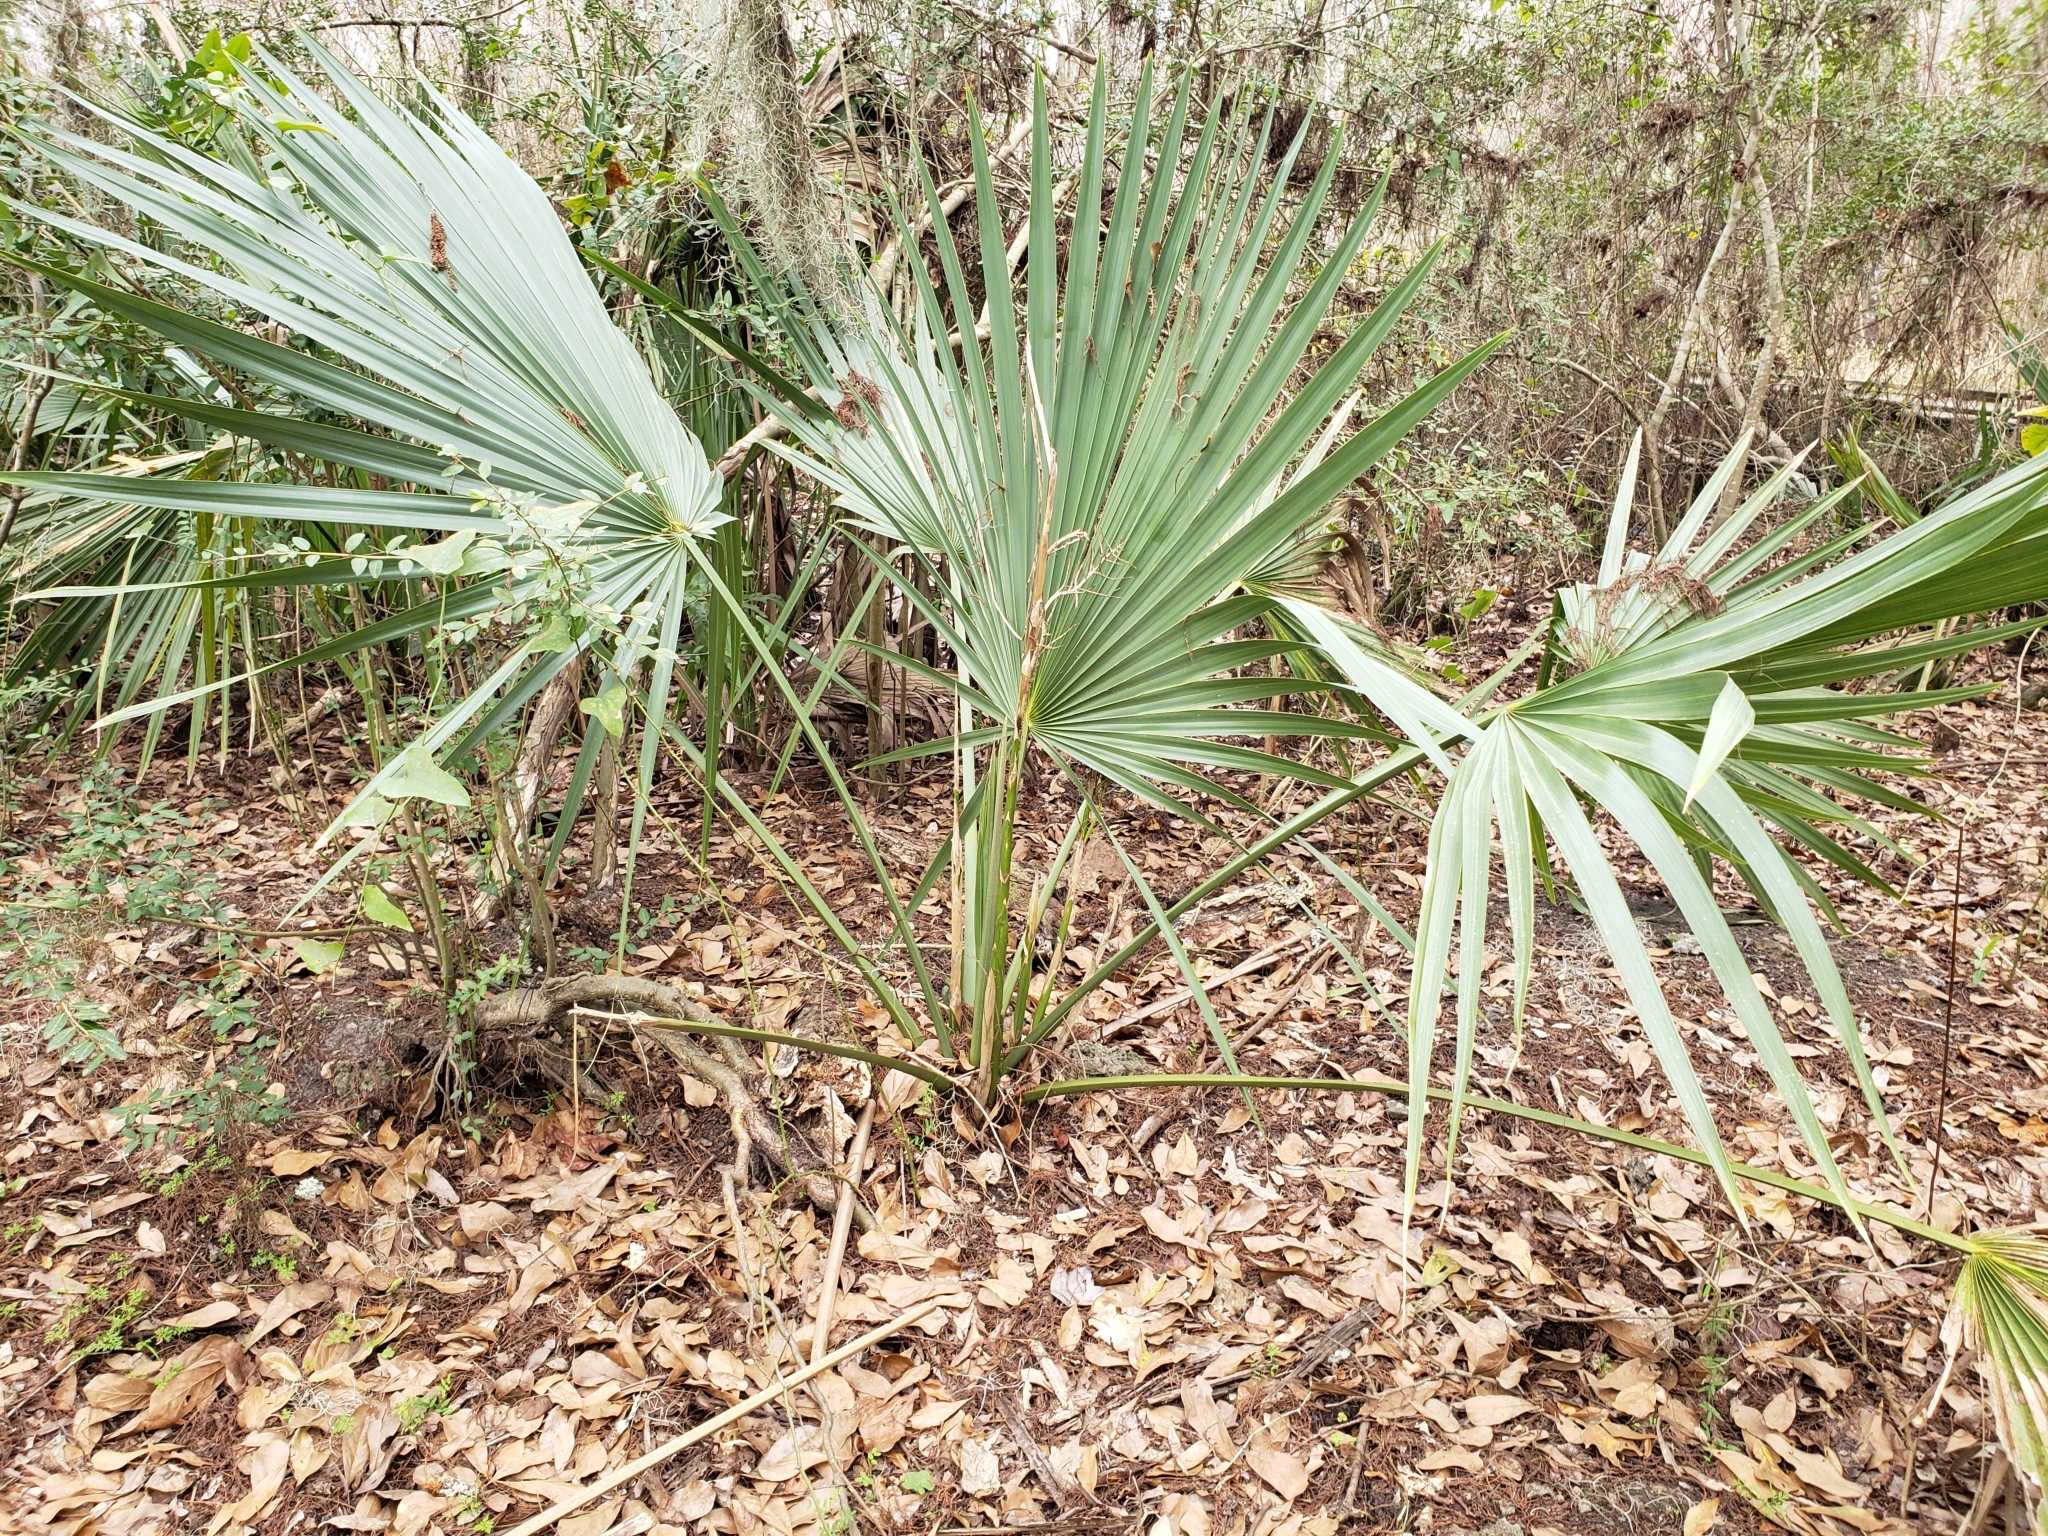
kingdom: Plantae
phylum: Tracheophyta
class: Liliopsida
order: Arecales
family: Arecaceae
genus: Sabal
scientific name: Sabal minor
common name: Dwarf palmetto
